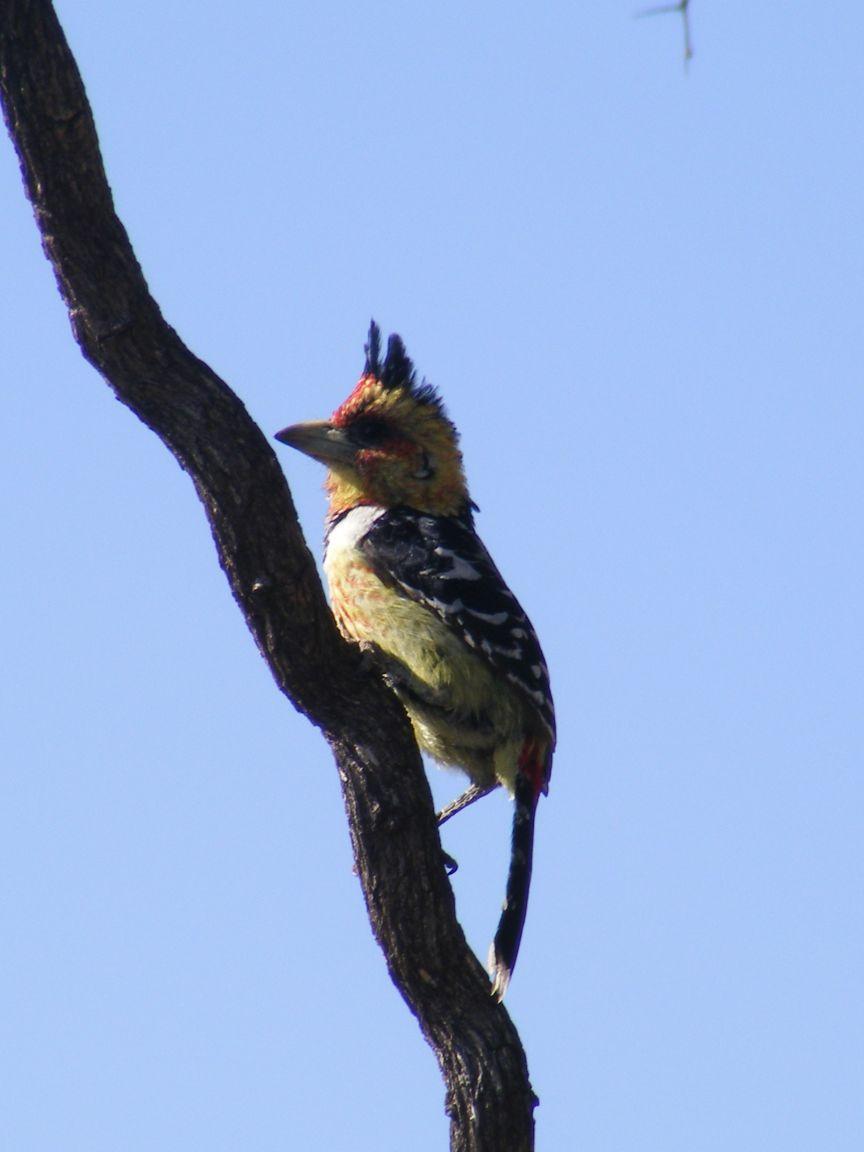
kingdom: Animalia
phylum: Chordata
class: Aves
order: Piciformes
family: Lybiidae
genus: Trachyphonus
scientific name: Trachyphonus vaillantii
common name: Crested barbet
